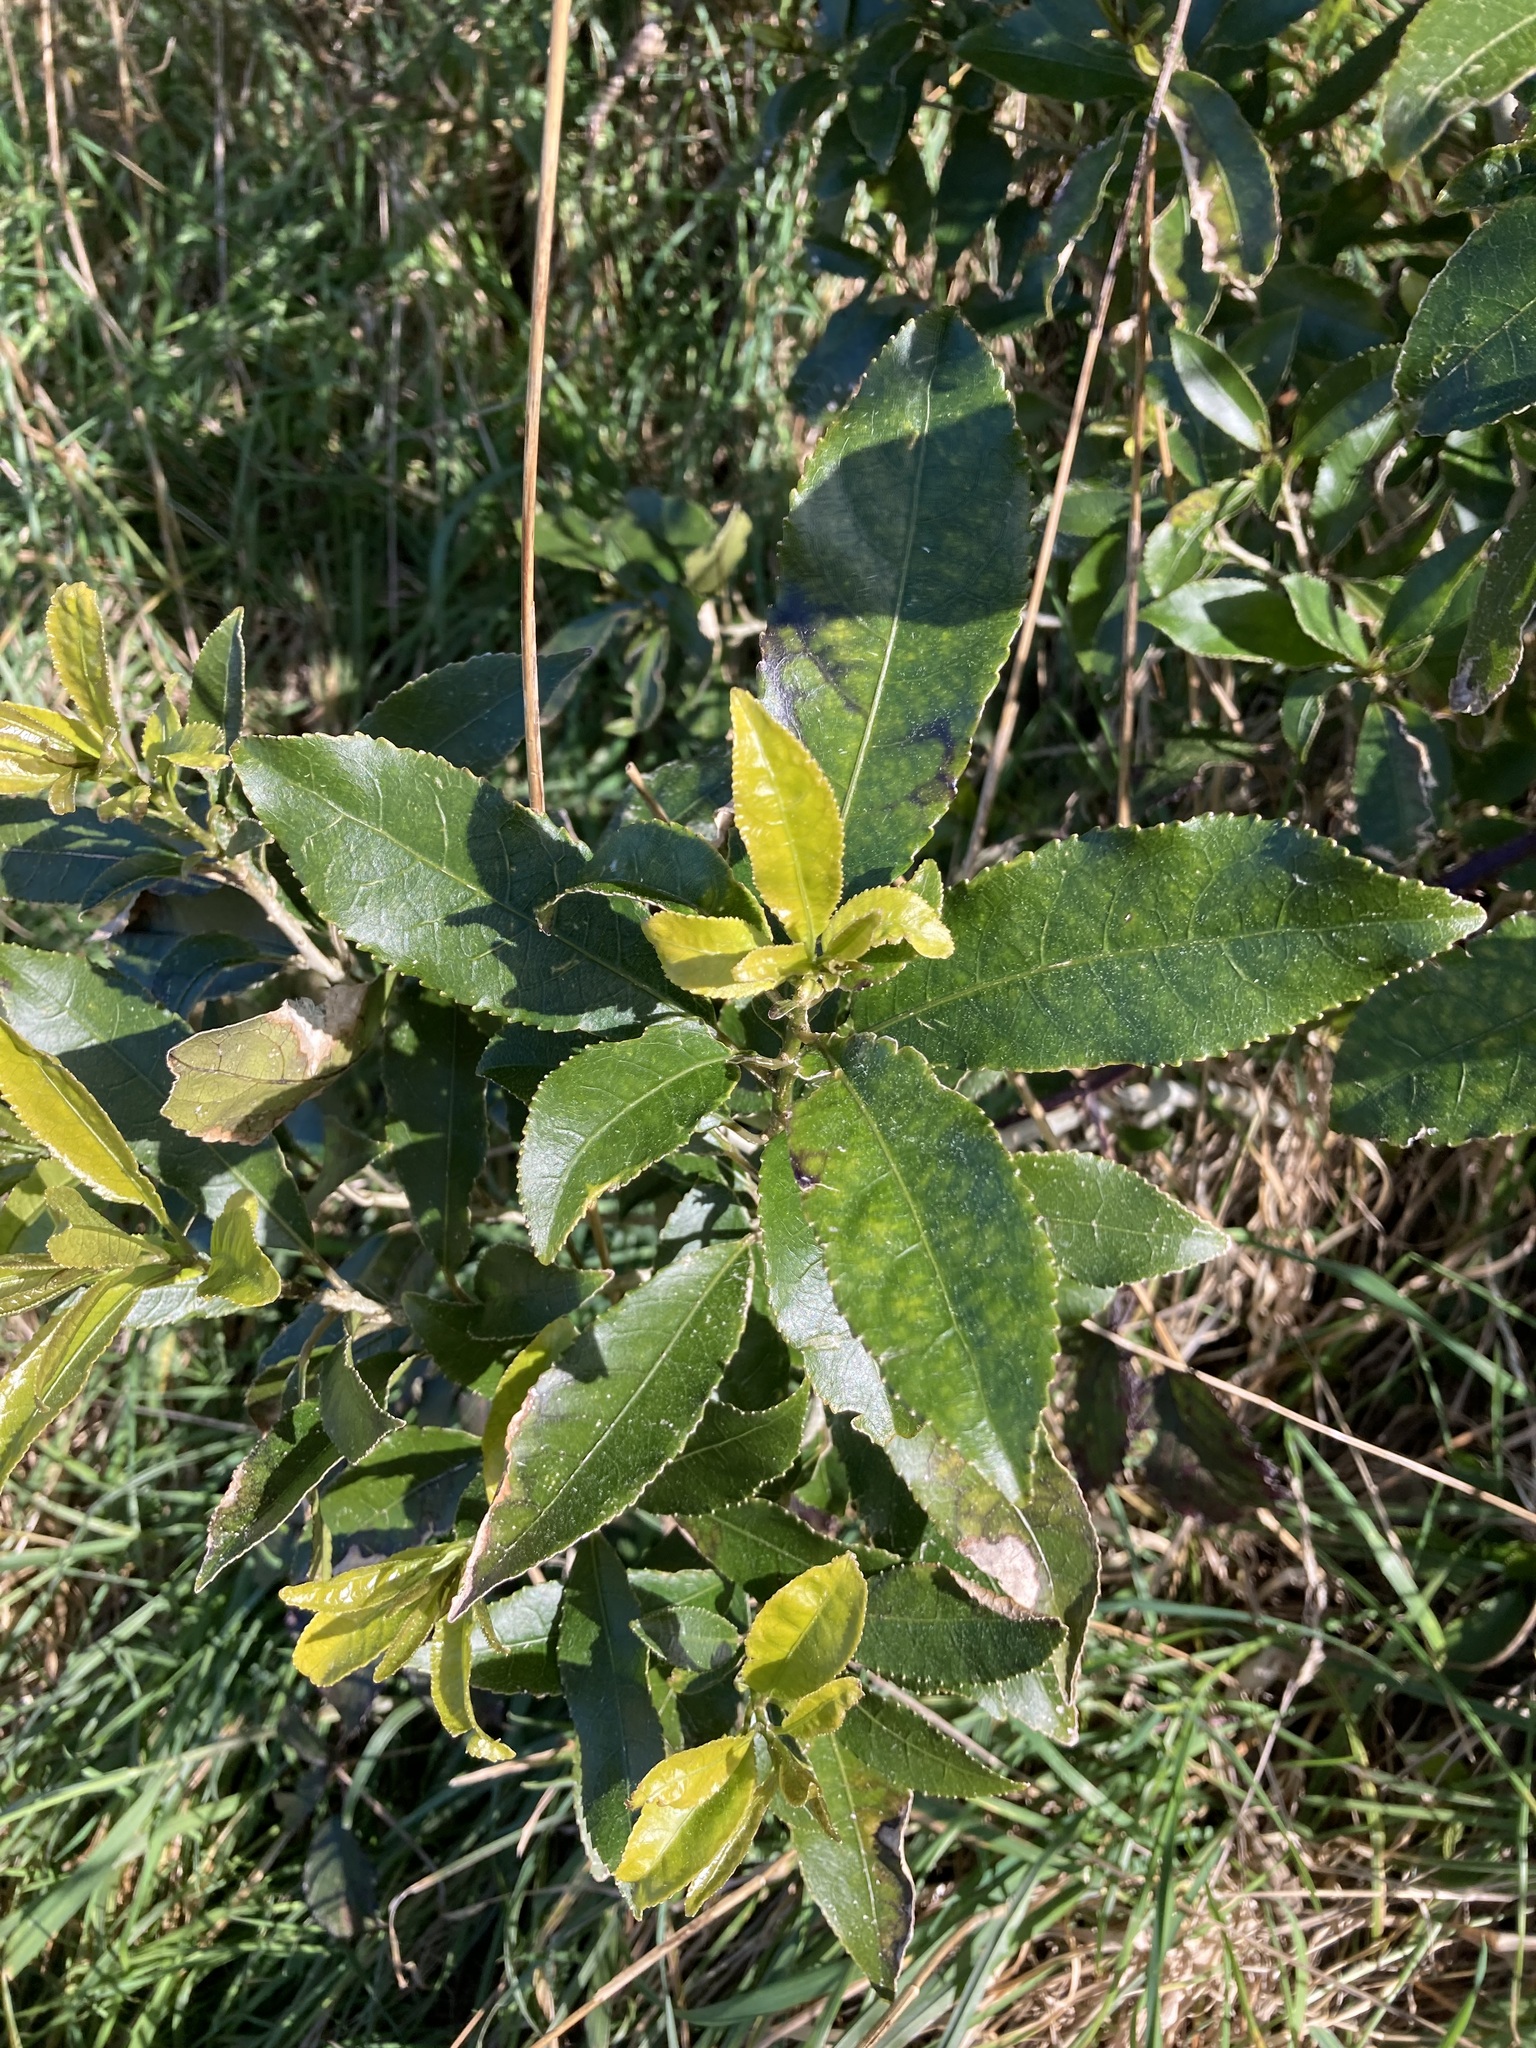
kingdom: Plantae
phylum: Tracheophyta
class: Magnoliopsida
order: Malpighiales
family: Violaceae
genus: Melicytus
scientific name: Melicytus ramiflorus
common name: Mahoe
